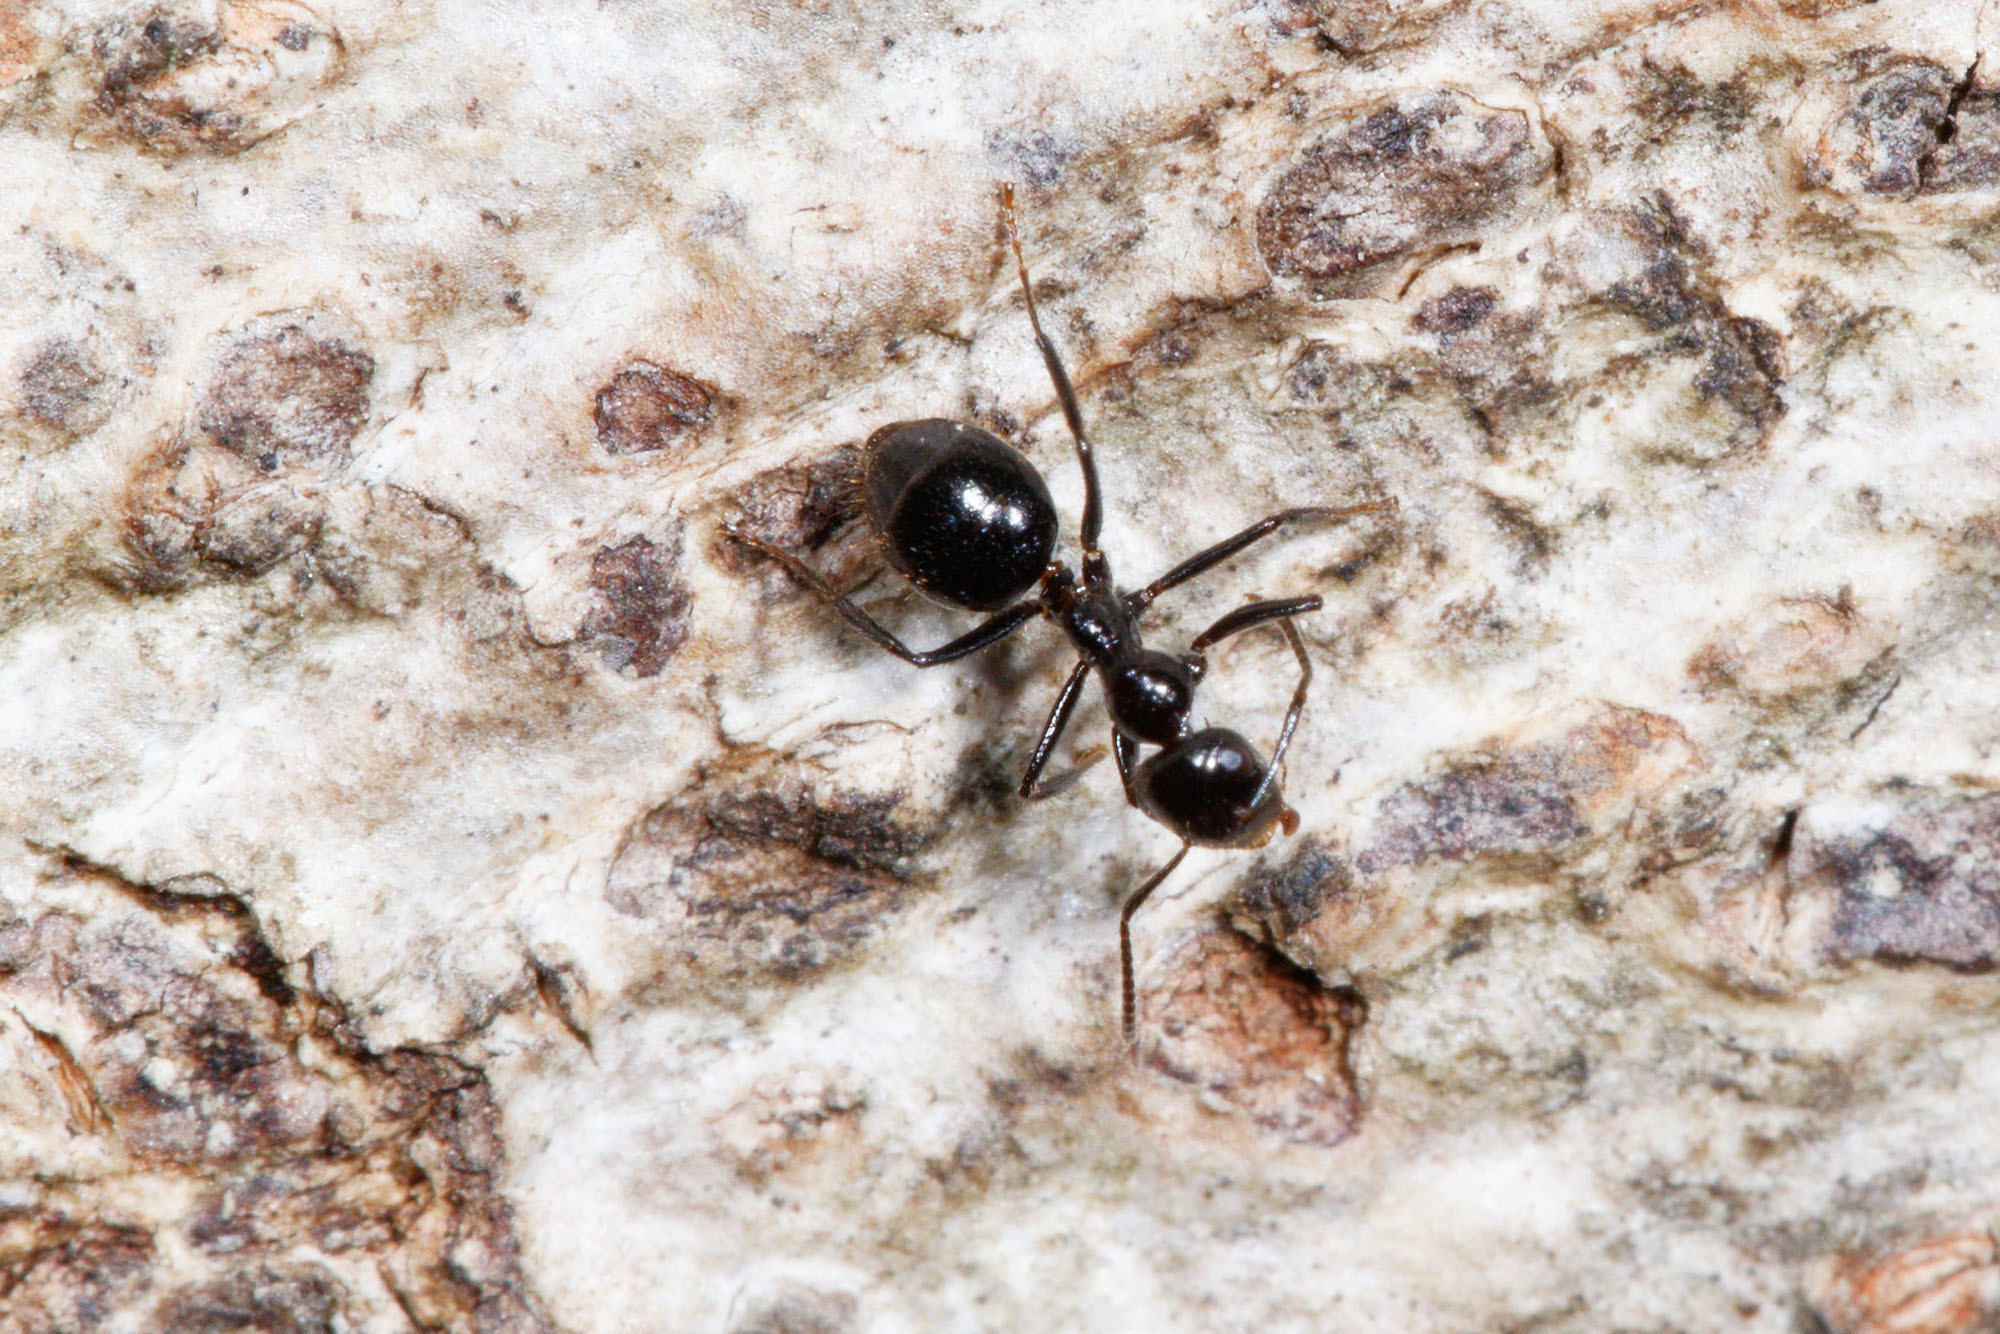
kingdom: Animalia
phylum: Arthropoda
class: Insecta
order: Hymenoptera
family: Formicidae
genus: Camponotus
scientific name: Camponotus vitreus
